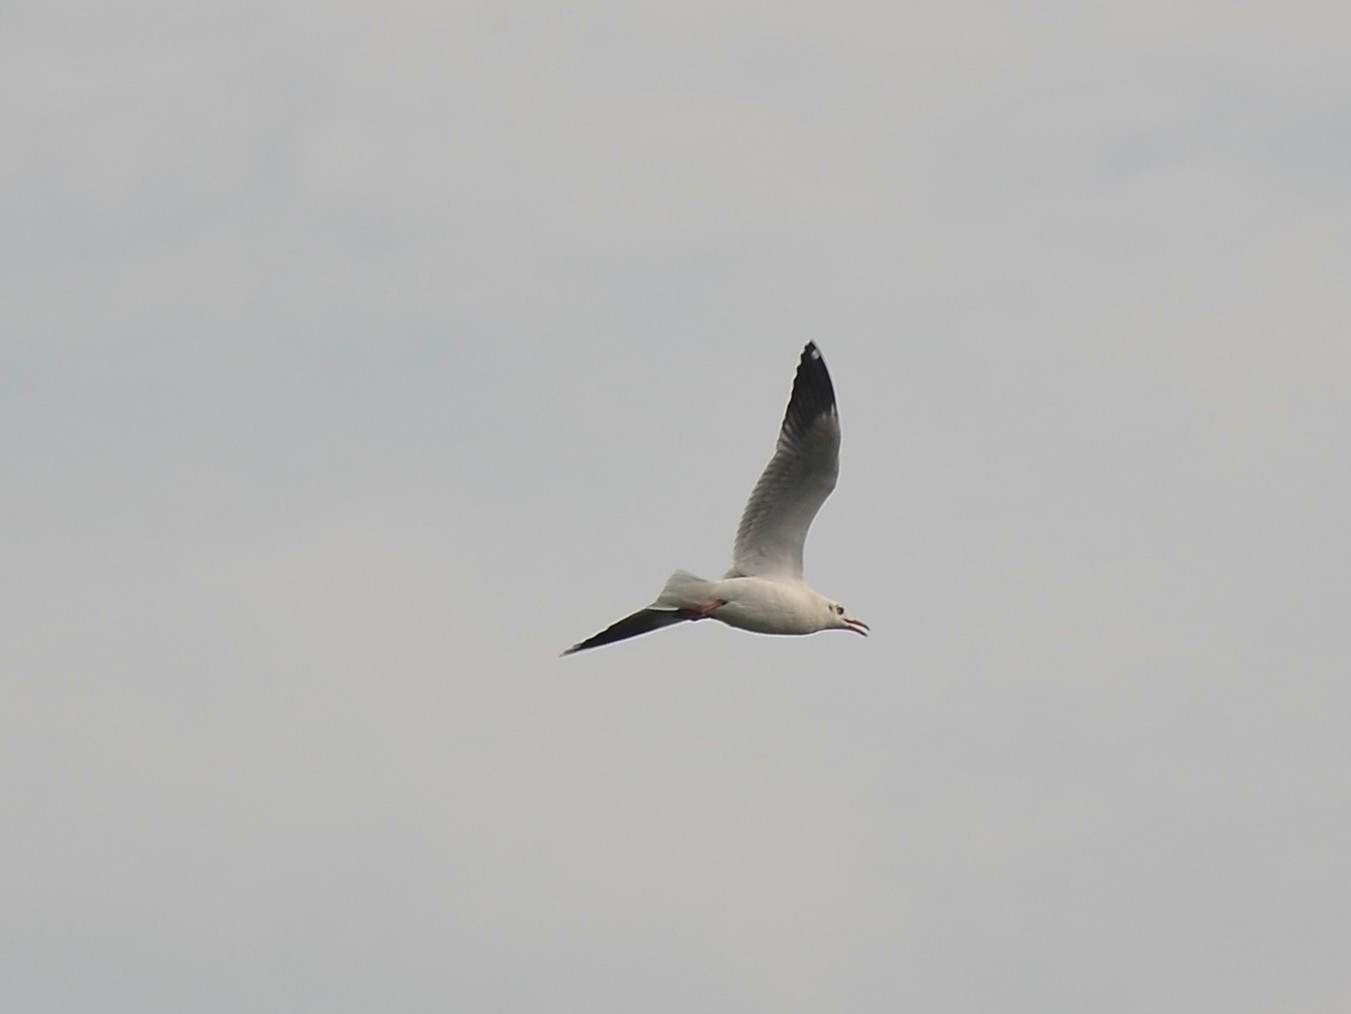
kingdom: Animalia
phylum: Chordata
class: Aves
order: Charadriiformes
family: Laridae
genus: Chroicocephalus
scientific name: Chroicocephalus brunnicephalus
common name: Brown-headed gull
